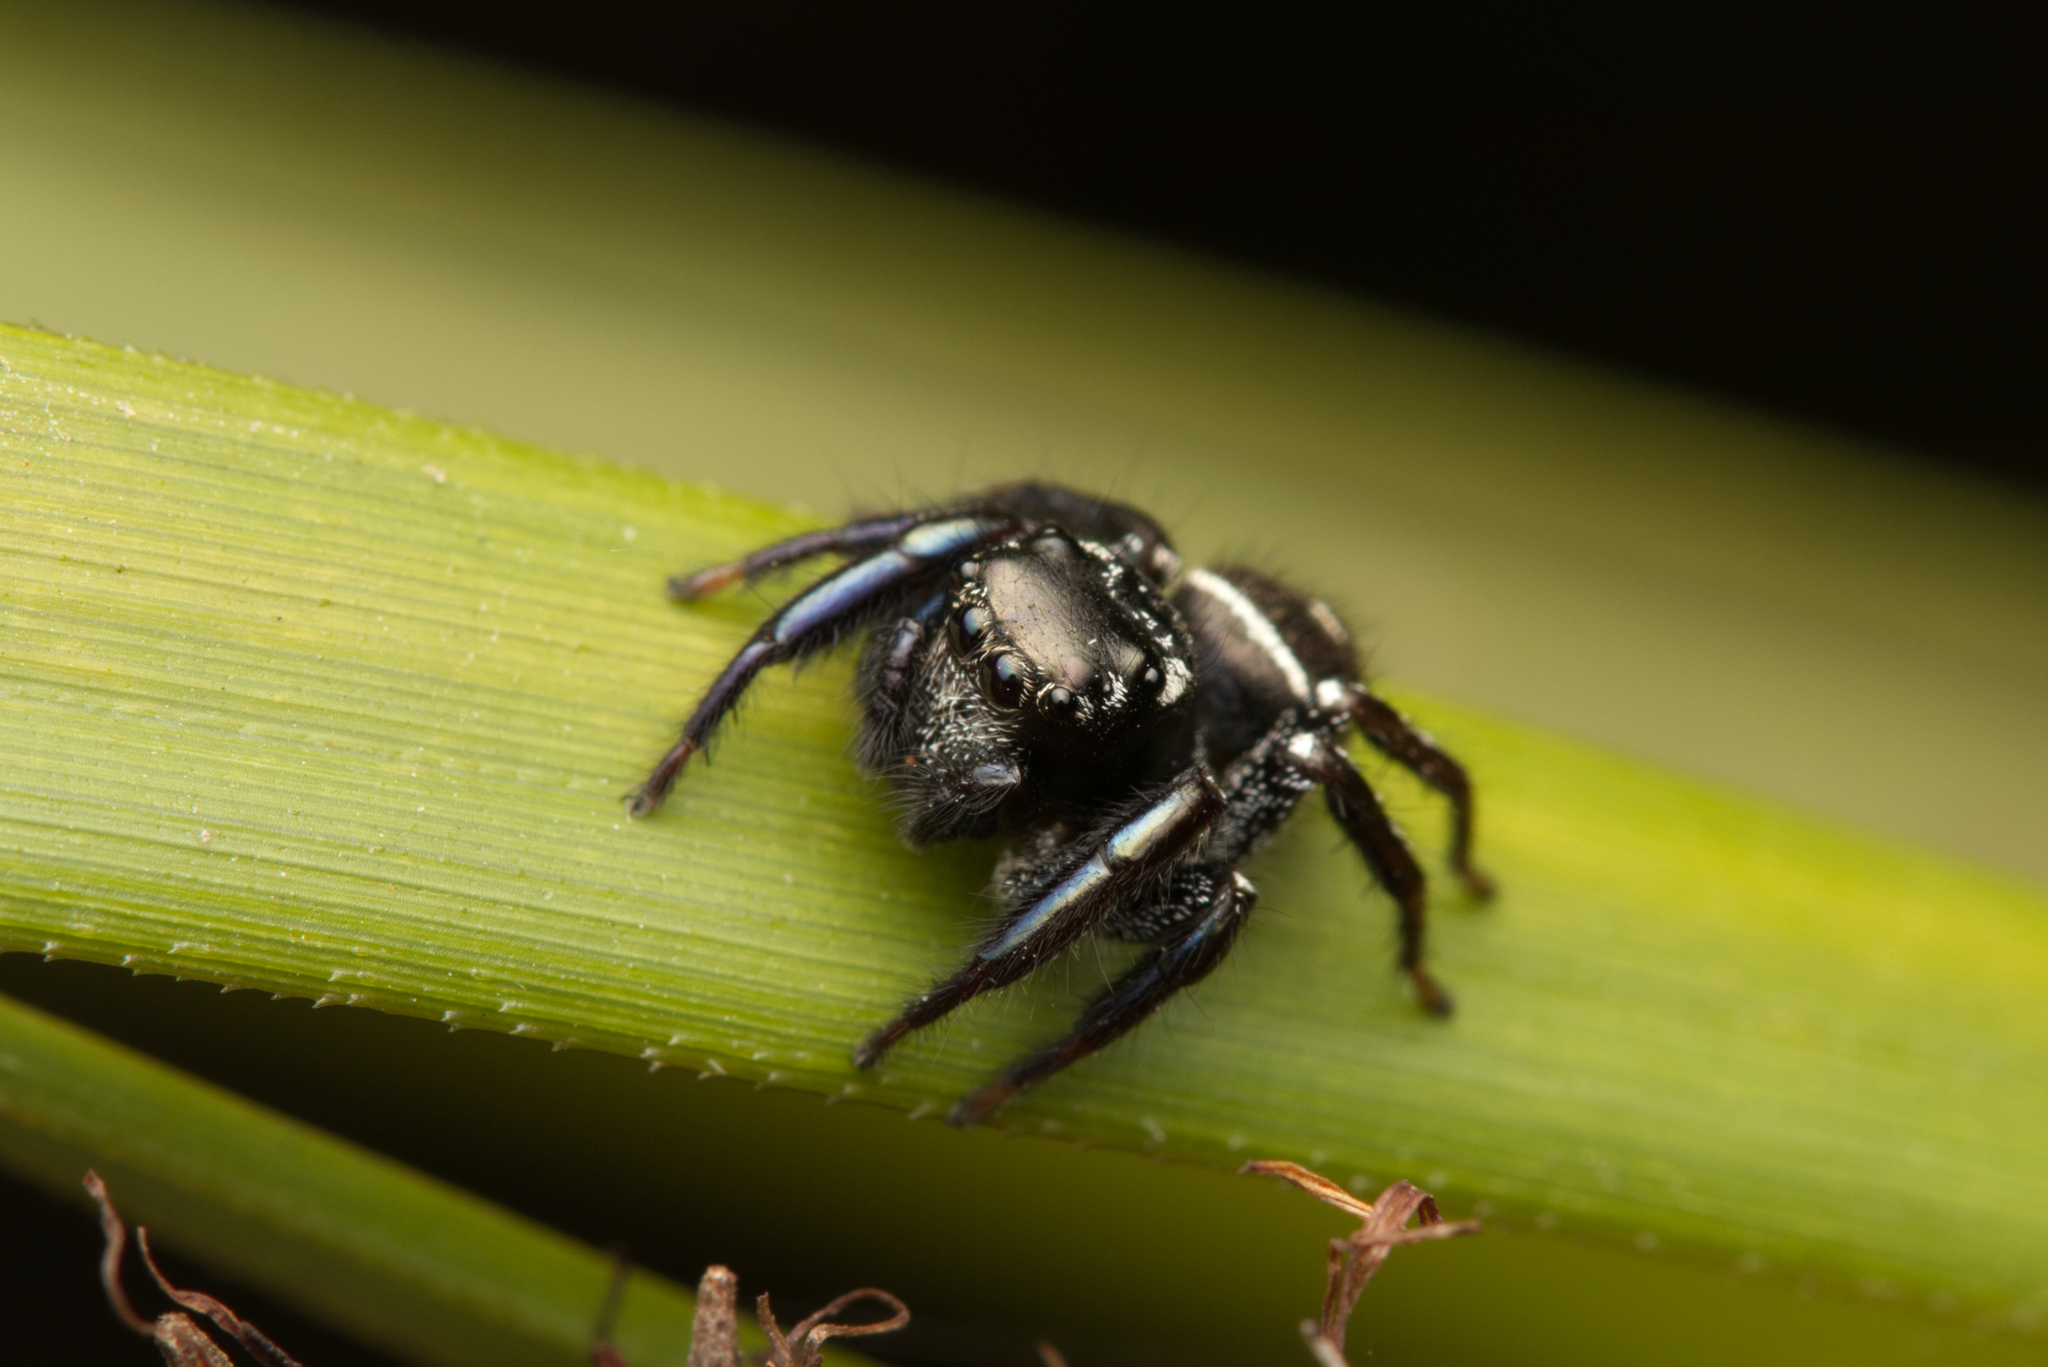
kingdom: Animalia
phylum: Arthropoda
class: Arachnida
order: Araneae
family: Salticidae
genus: Zenodorus
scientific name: Zenodorus orbiculatus
